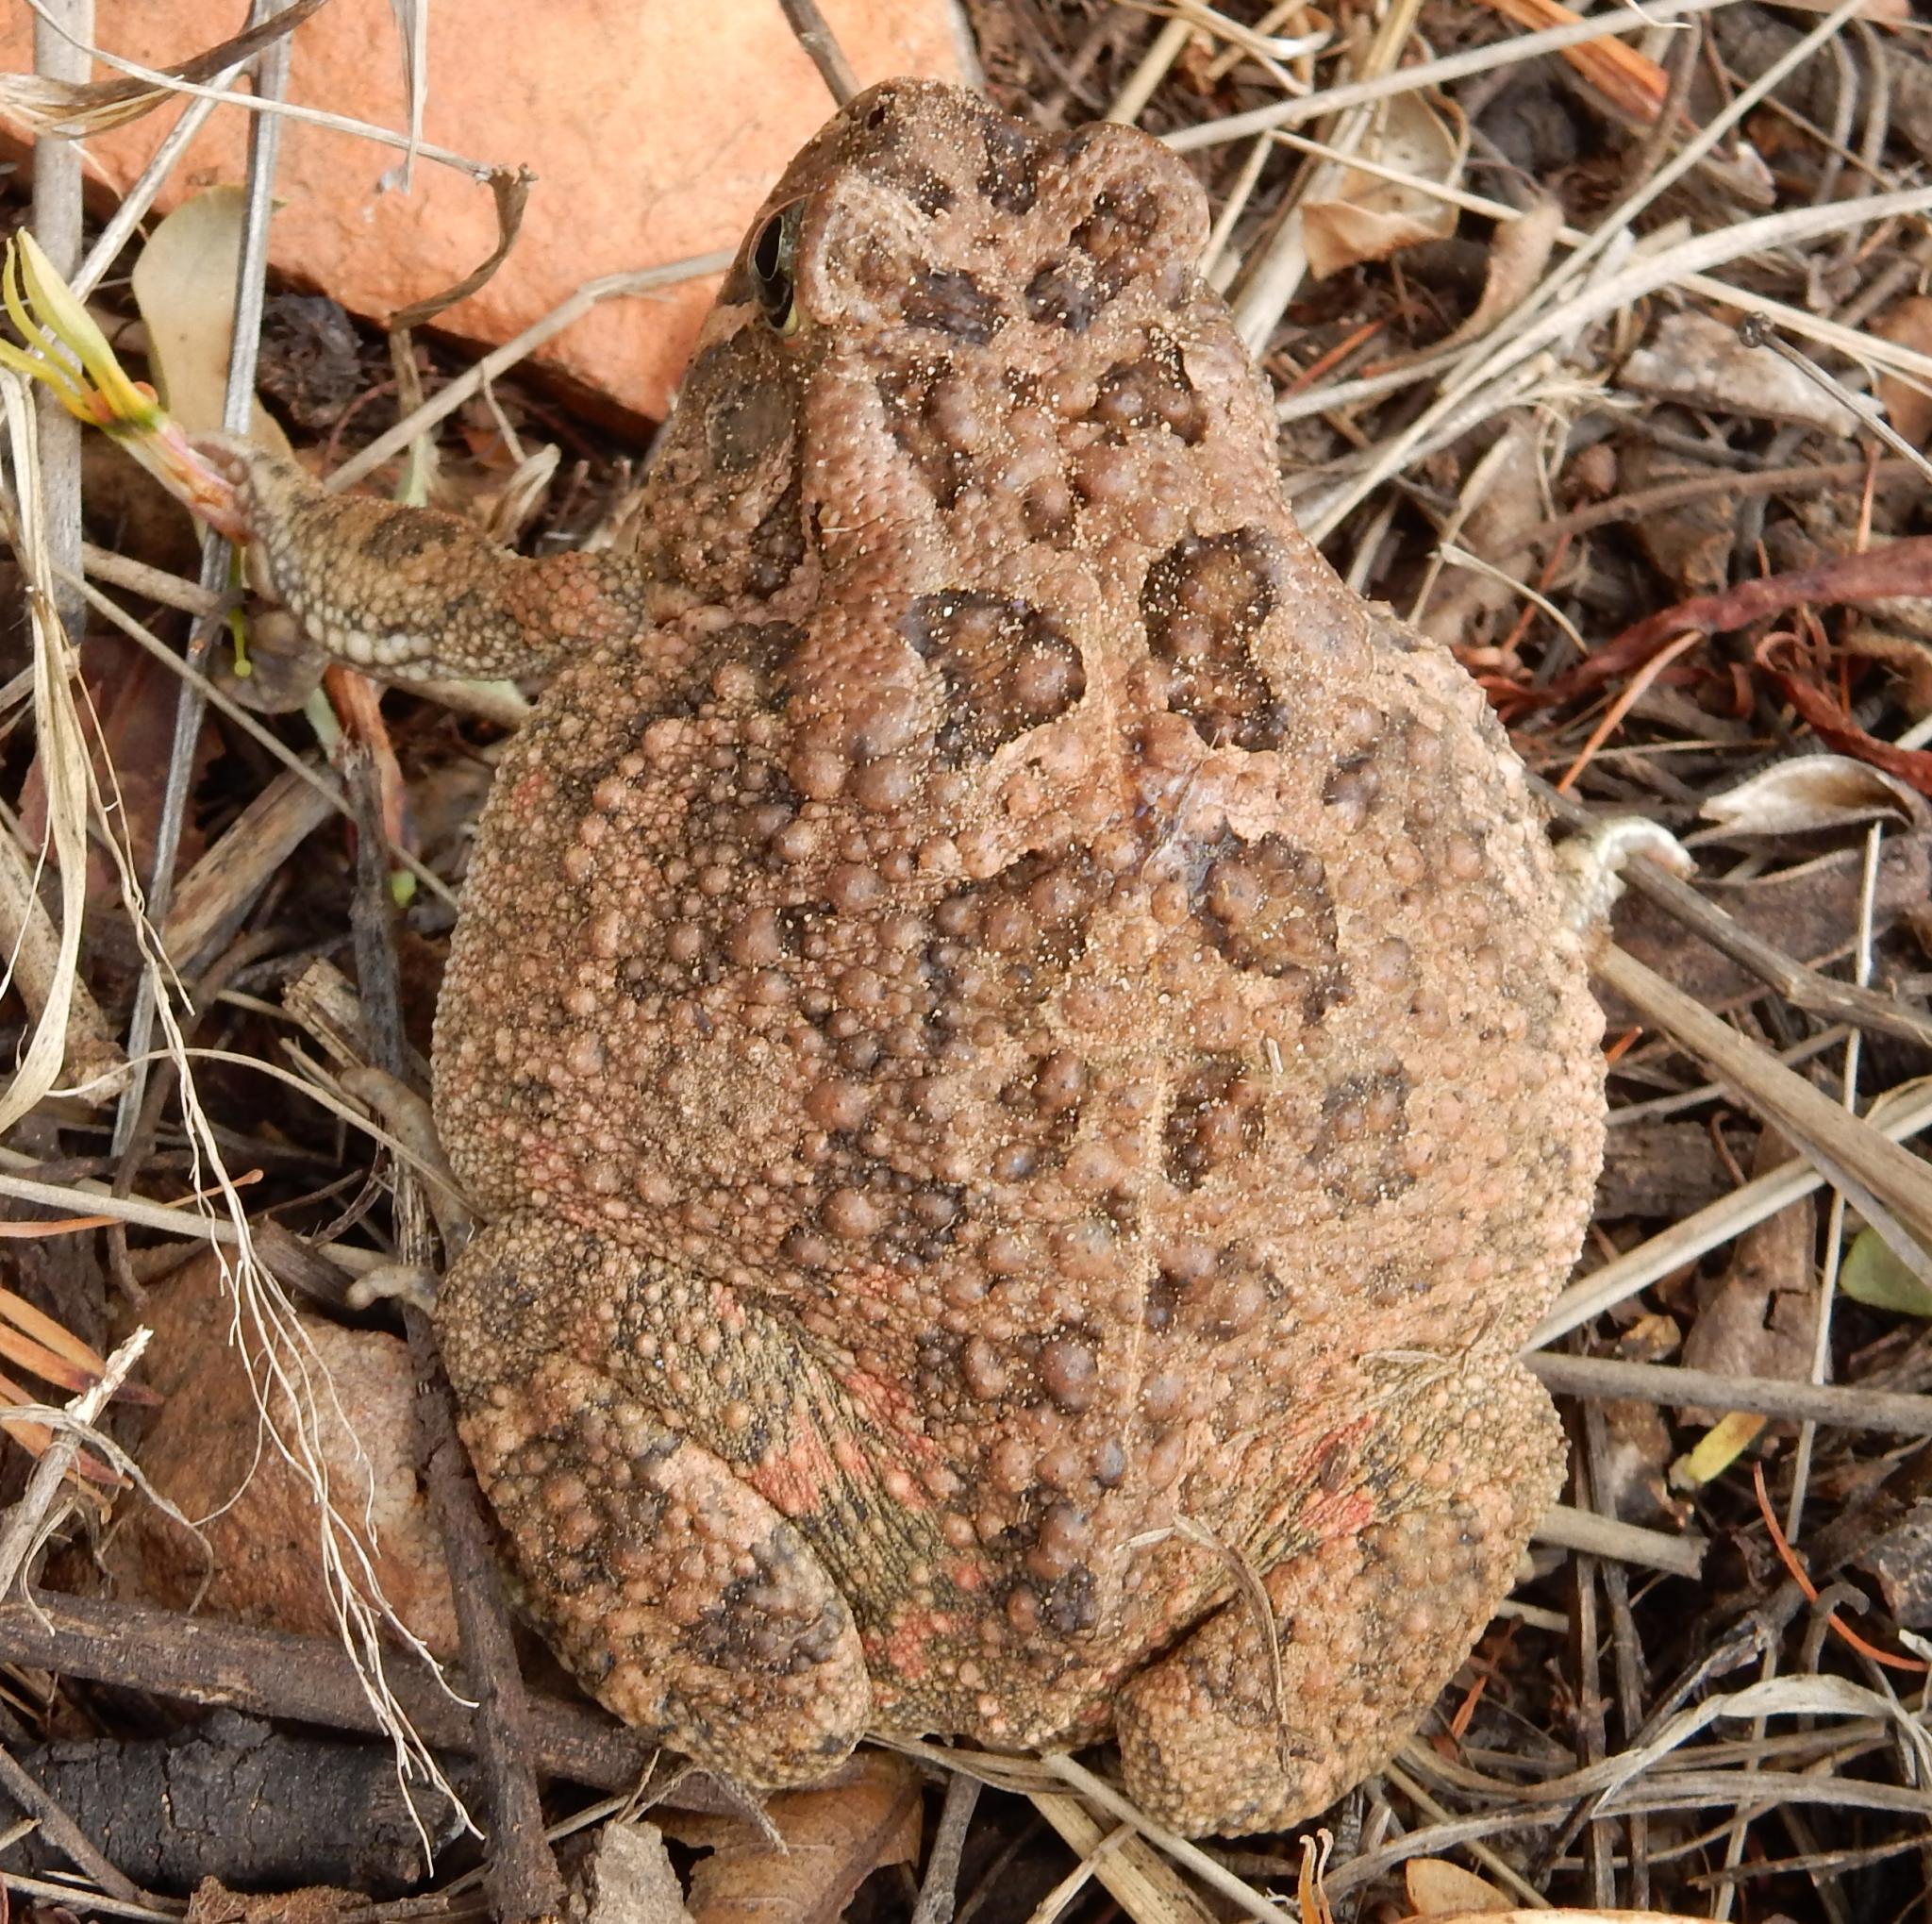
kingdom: Animalia
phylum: Chordata
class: Amphibia
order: Anura
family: Bufonidae
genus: Sclerophrys
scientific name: Sclerophrys gutturalis
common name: African common toad
